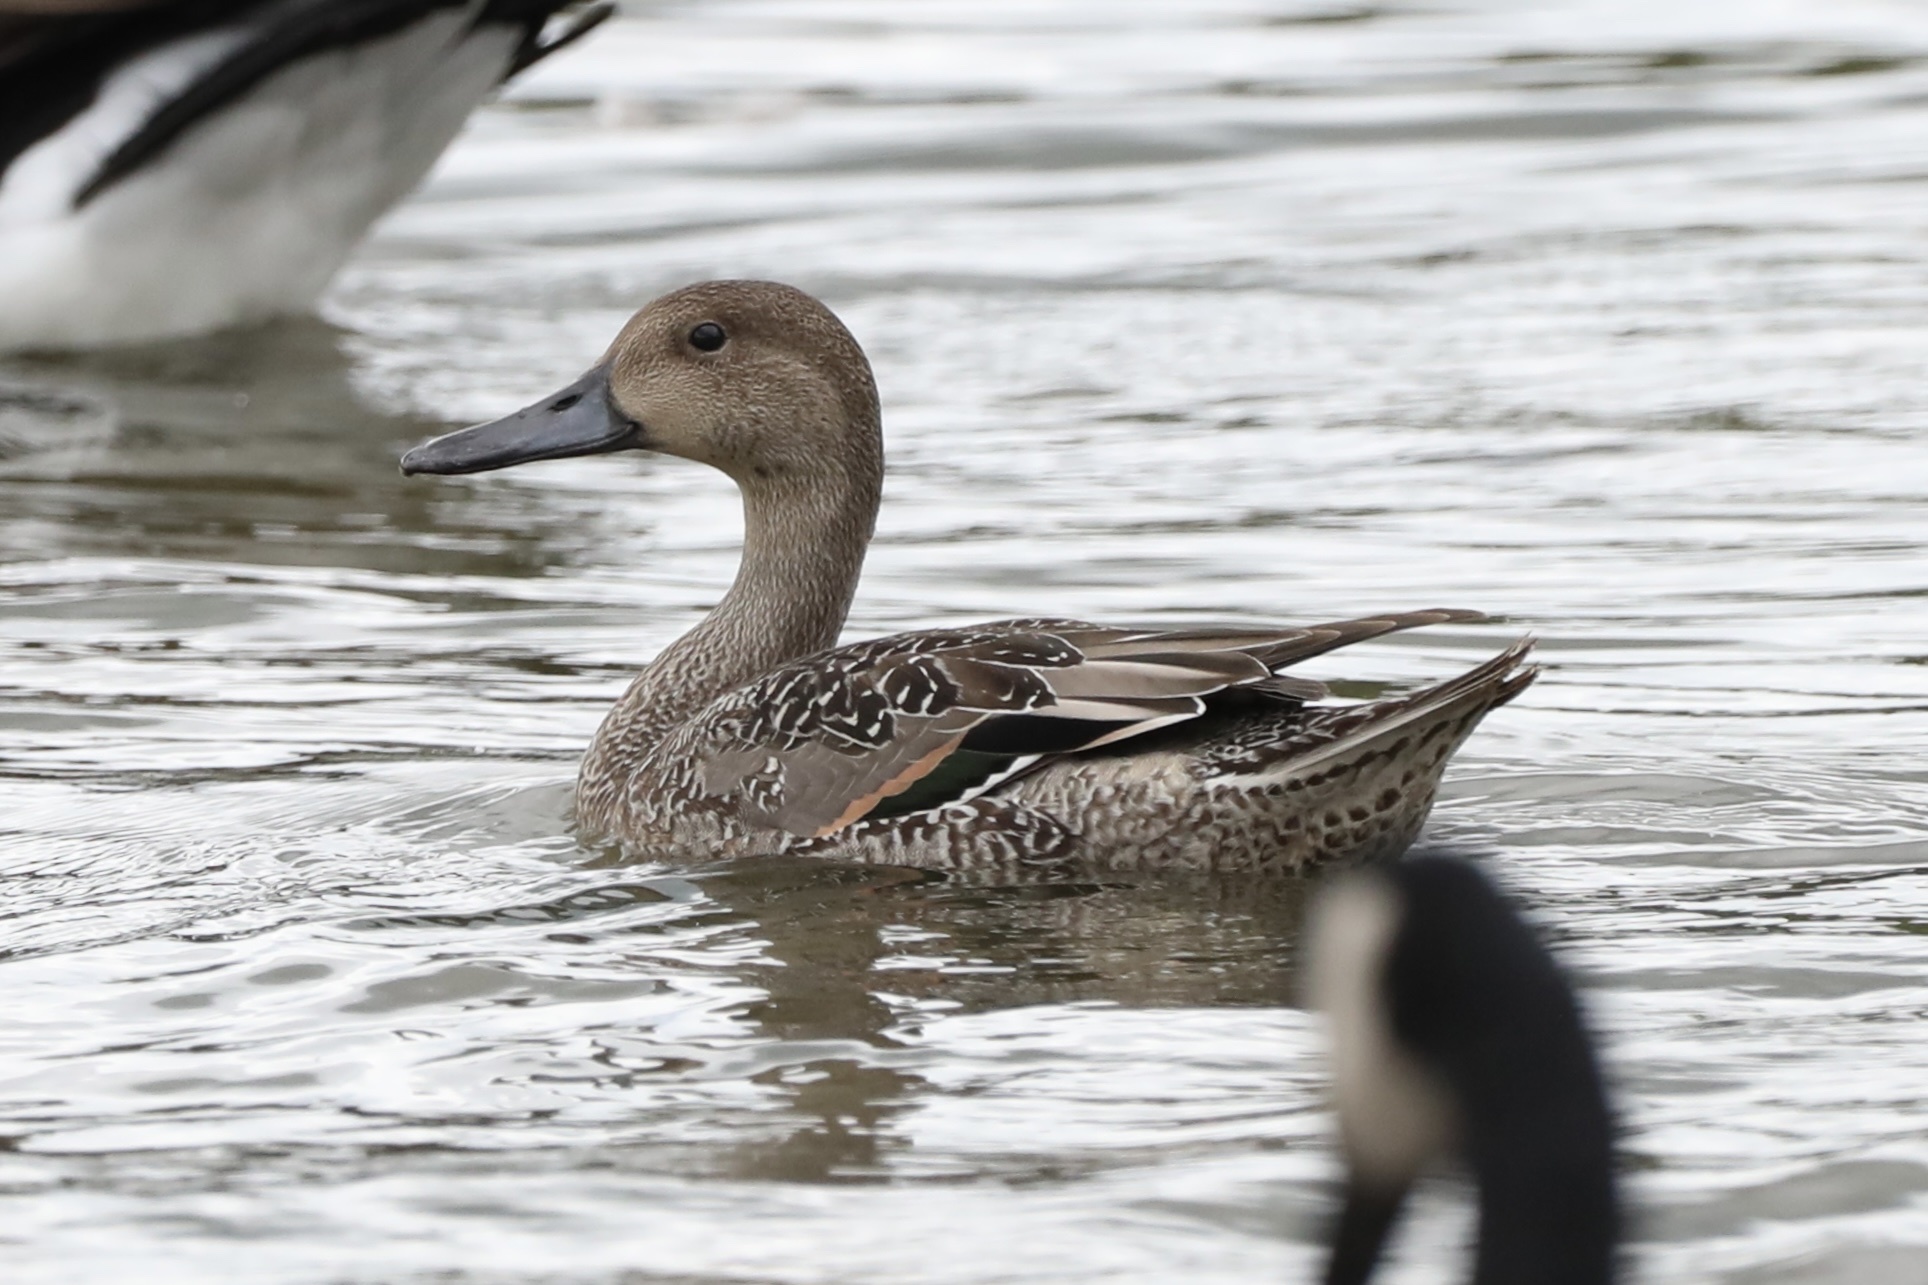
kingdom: Animalia
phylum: Chordata
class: Aves
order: Anseriformes
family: Anatidae
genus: Anas
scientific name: Anas acuta
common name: Northern pintail
